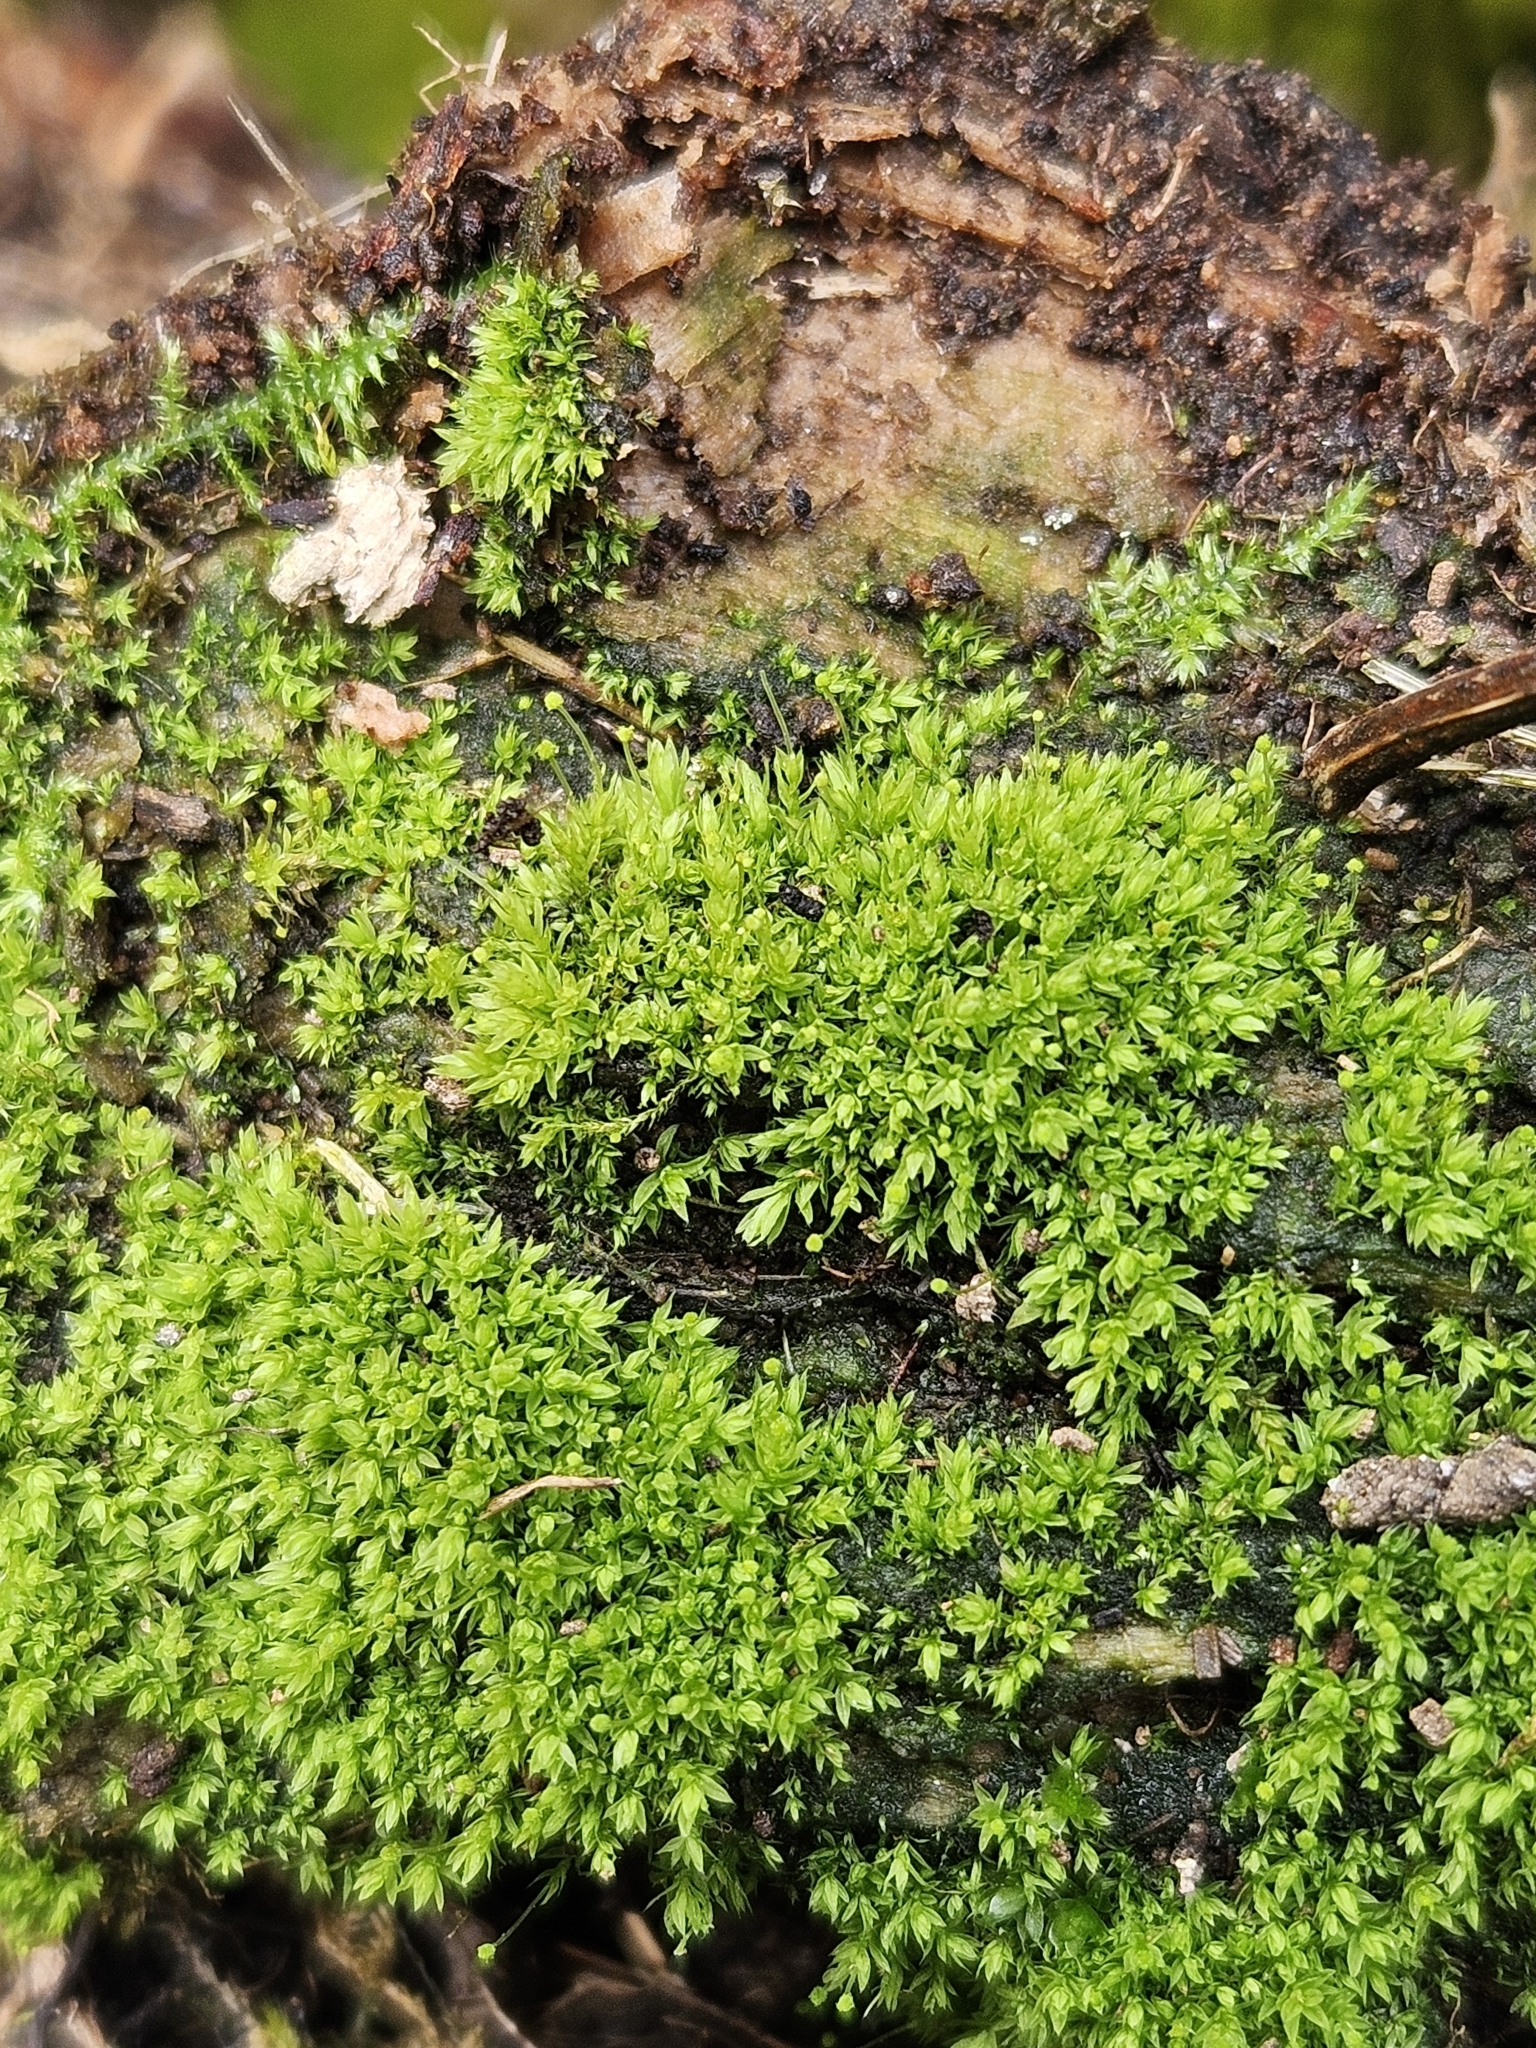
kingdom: Plantae
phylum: Bryophyta
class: Bryopsida
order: Aulacomniales
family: Aulacomniaceae
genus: Aulacomnium
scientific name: Aulacomnium androgynum
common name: Little groove moss
